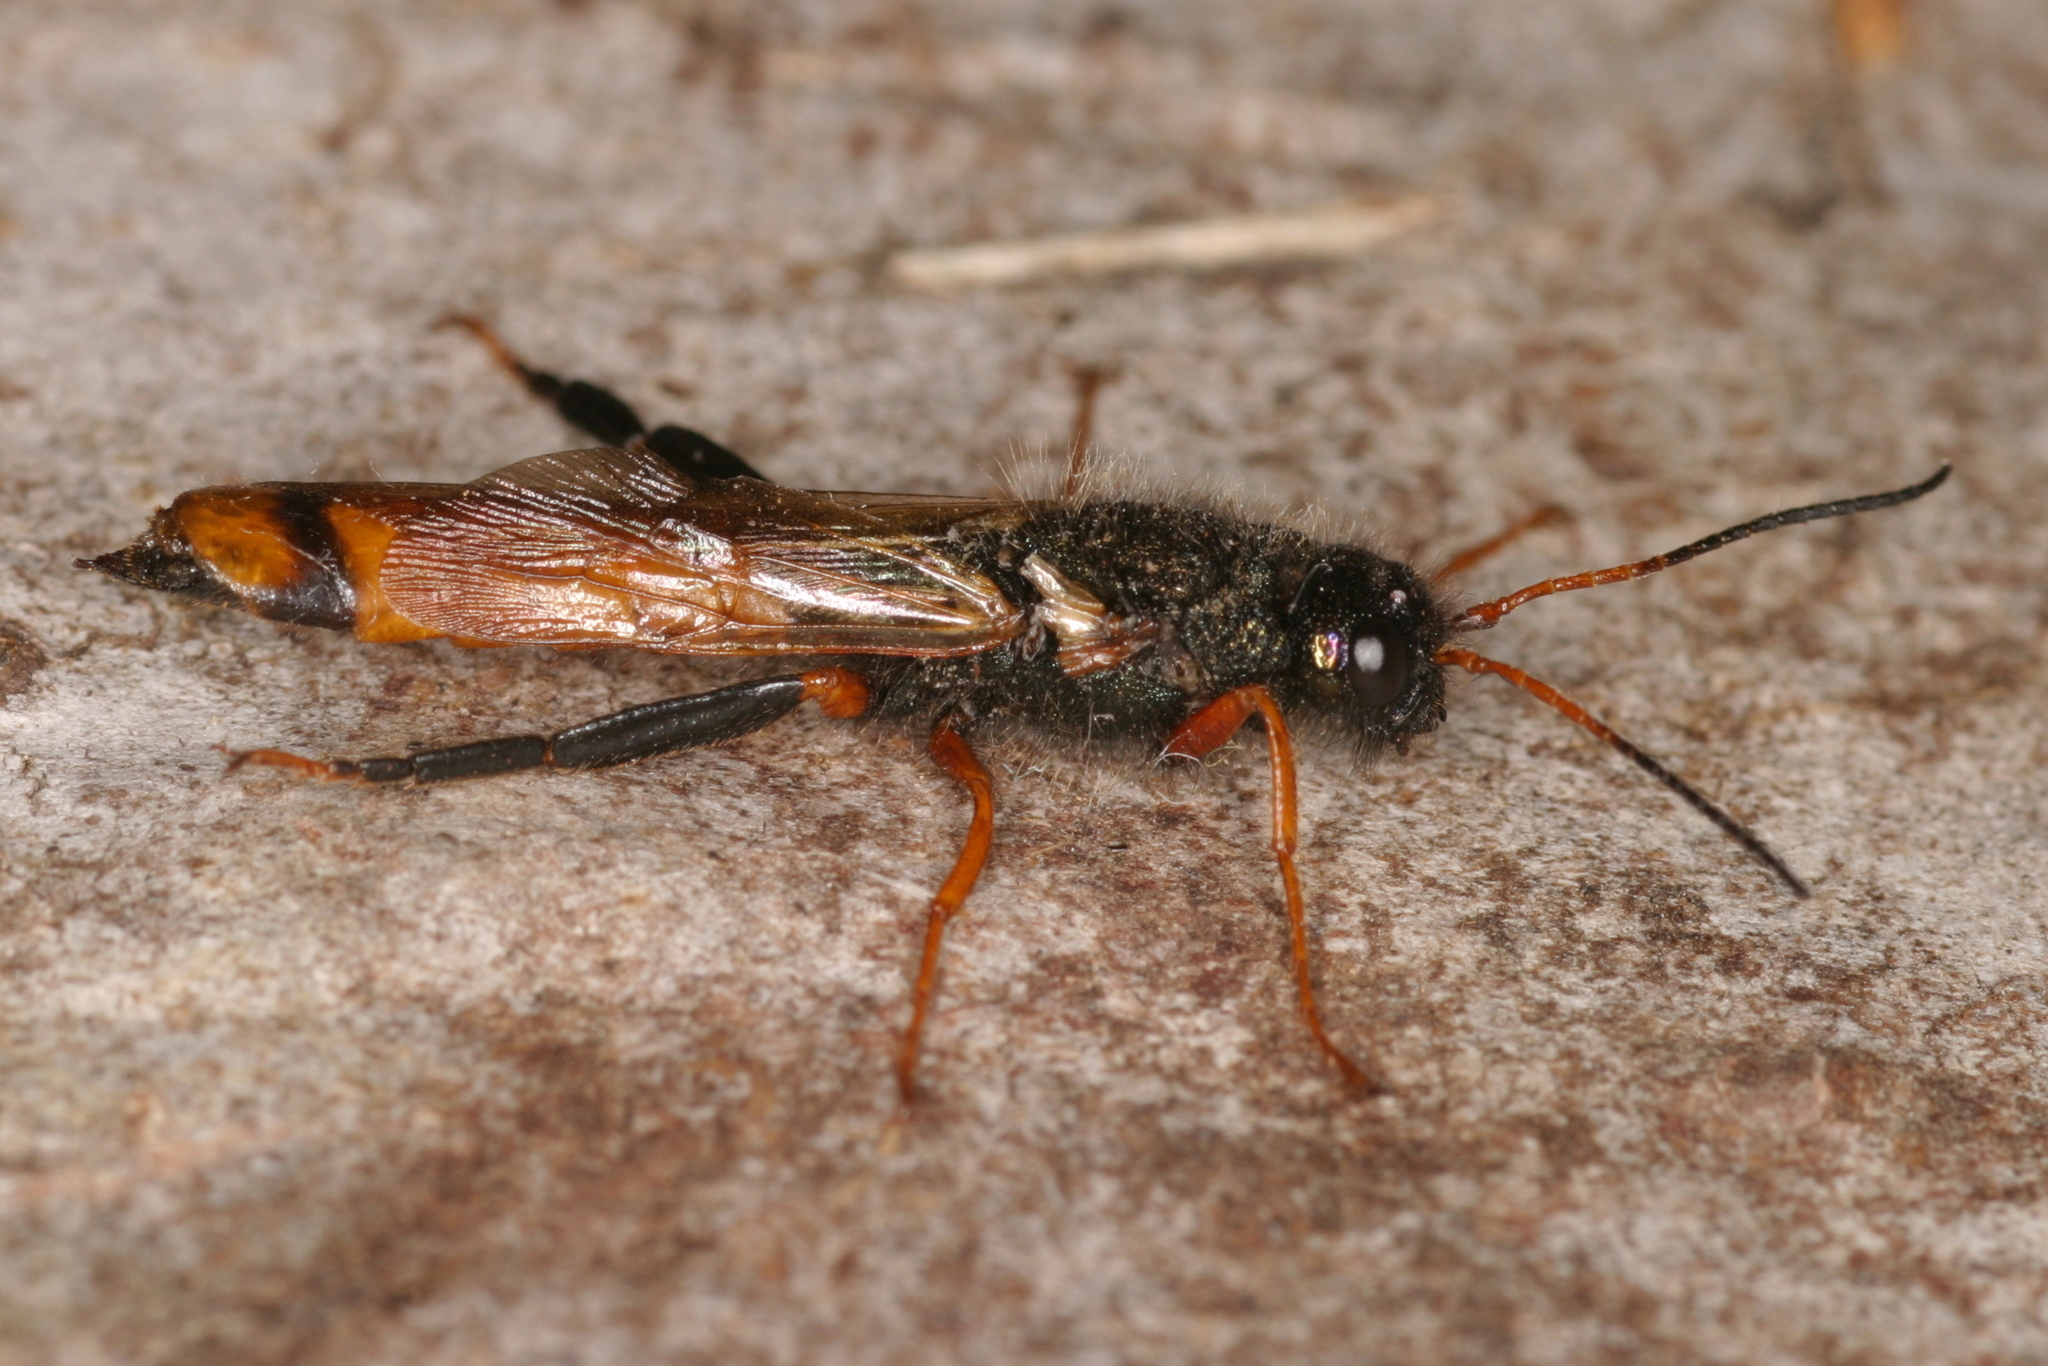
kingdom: Animalia
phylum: Arthropoda
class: Insecta
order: Hymenoptera
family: Siricidae
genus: Sirex
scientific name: Sirex juvencus
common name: Blue horntail
